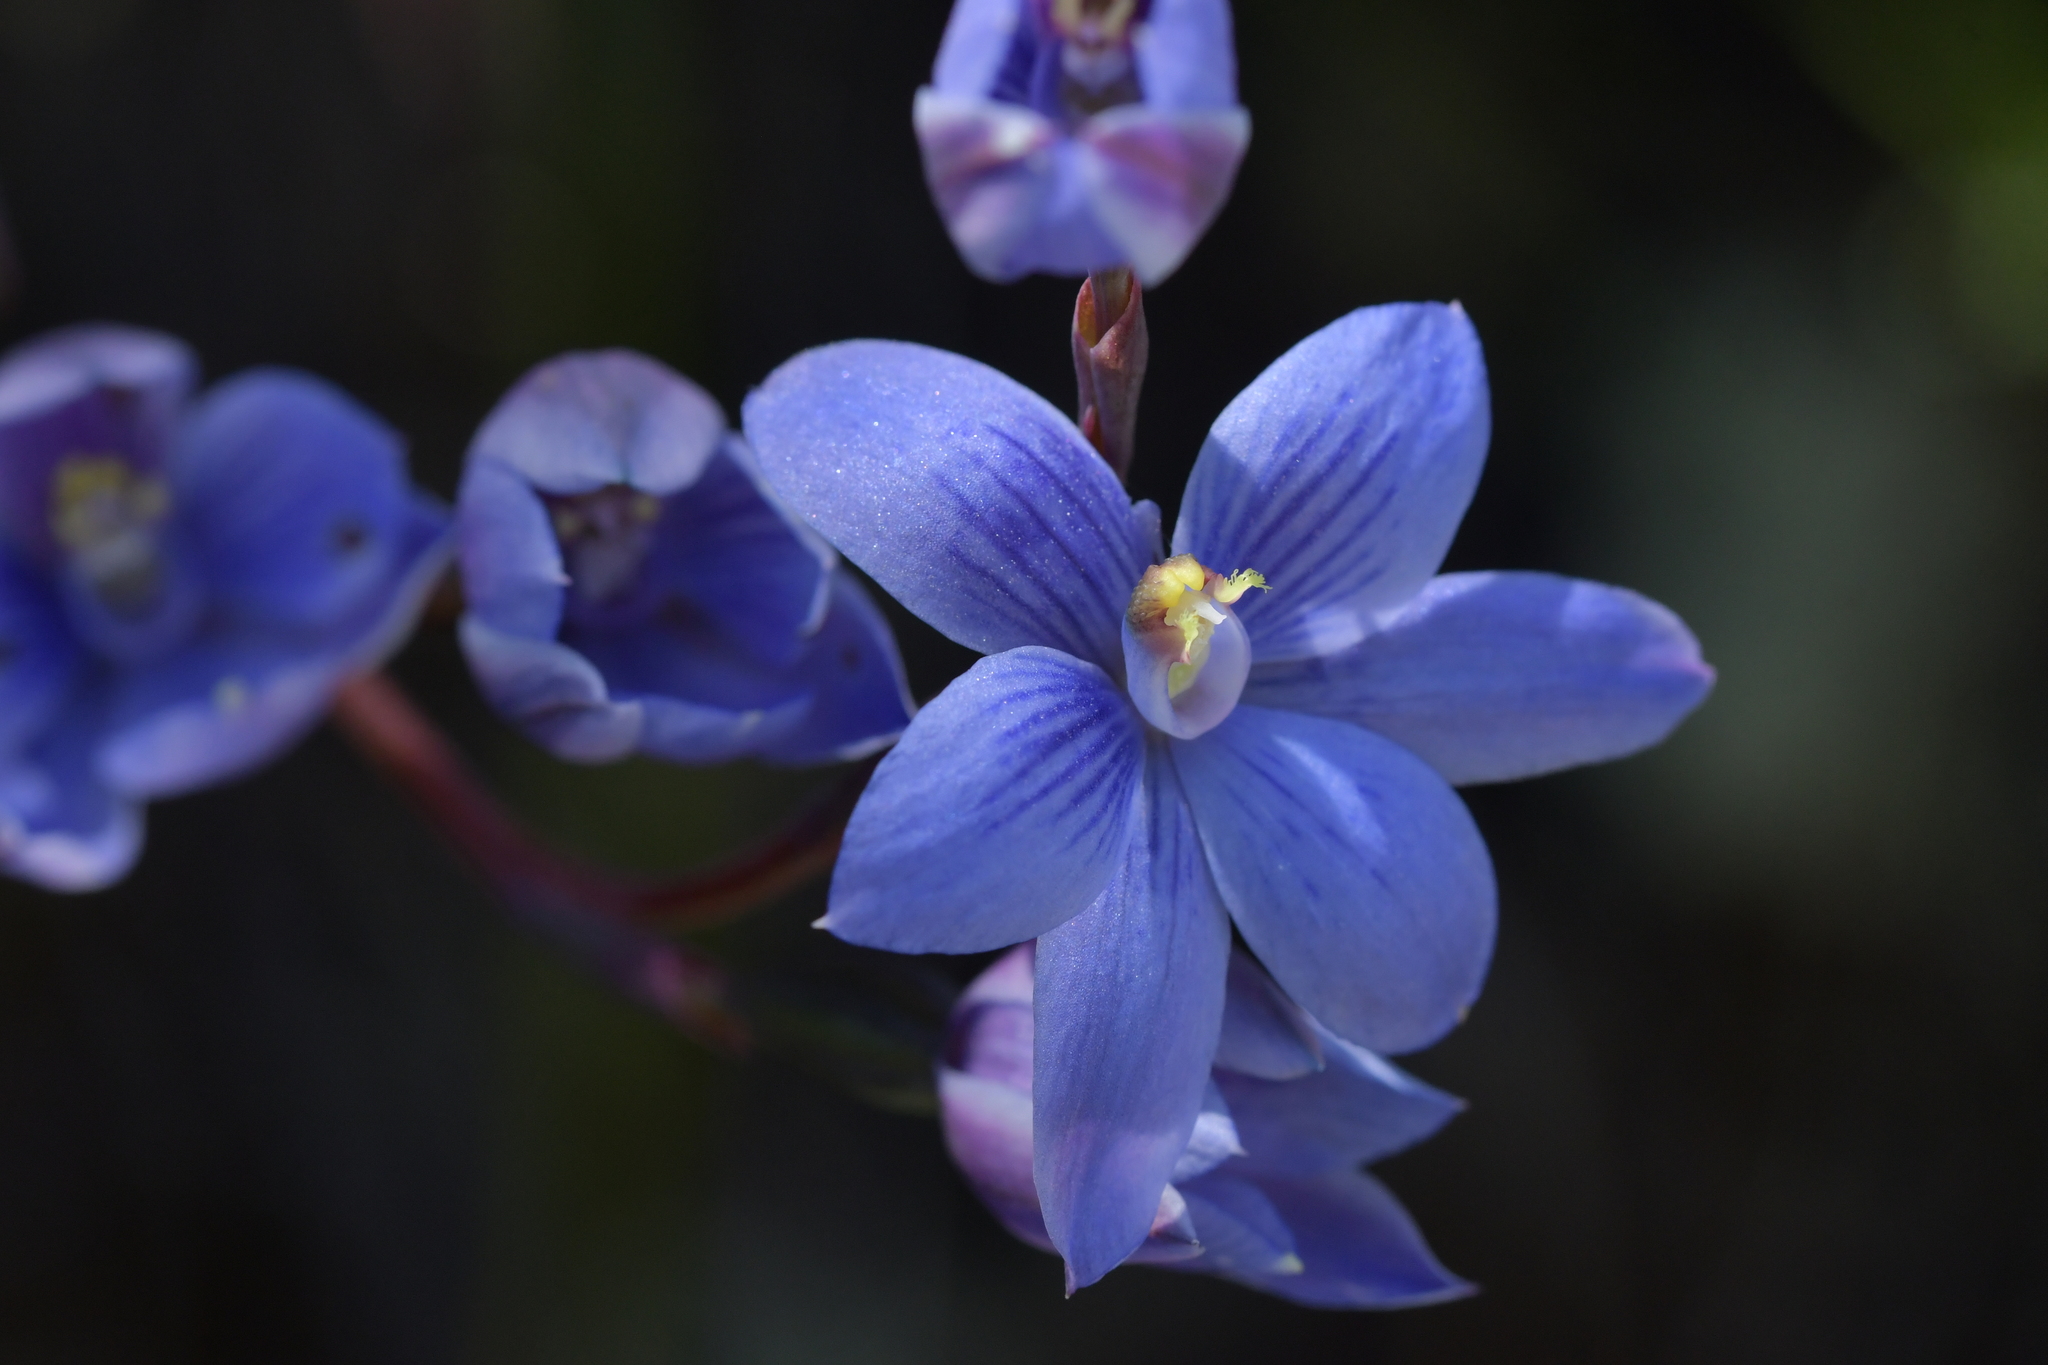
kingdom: Plantae
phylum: Tracheophyta
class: Liliopsida
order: Asparagales
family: Orchidaceae
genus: Thelymitra
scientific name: Thelymitra pulchella
